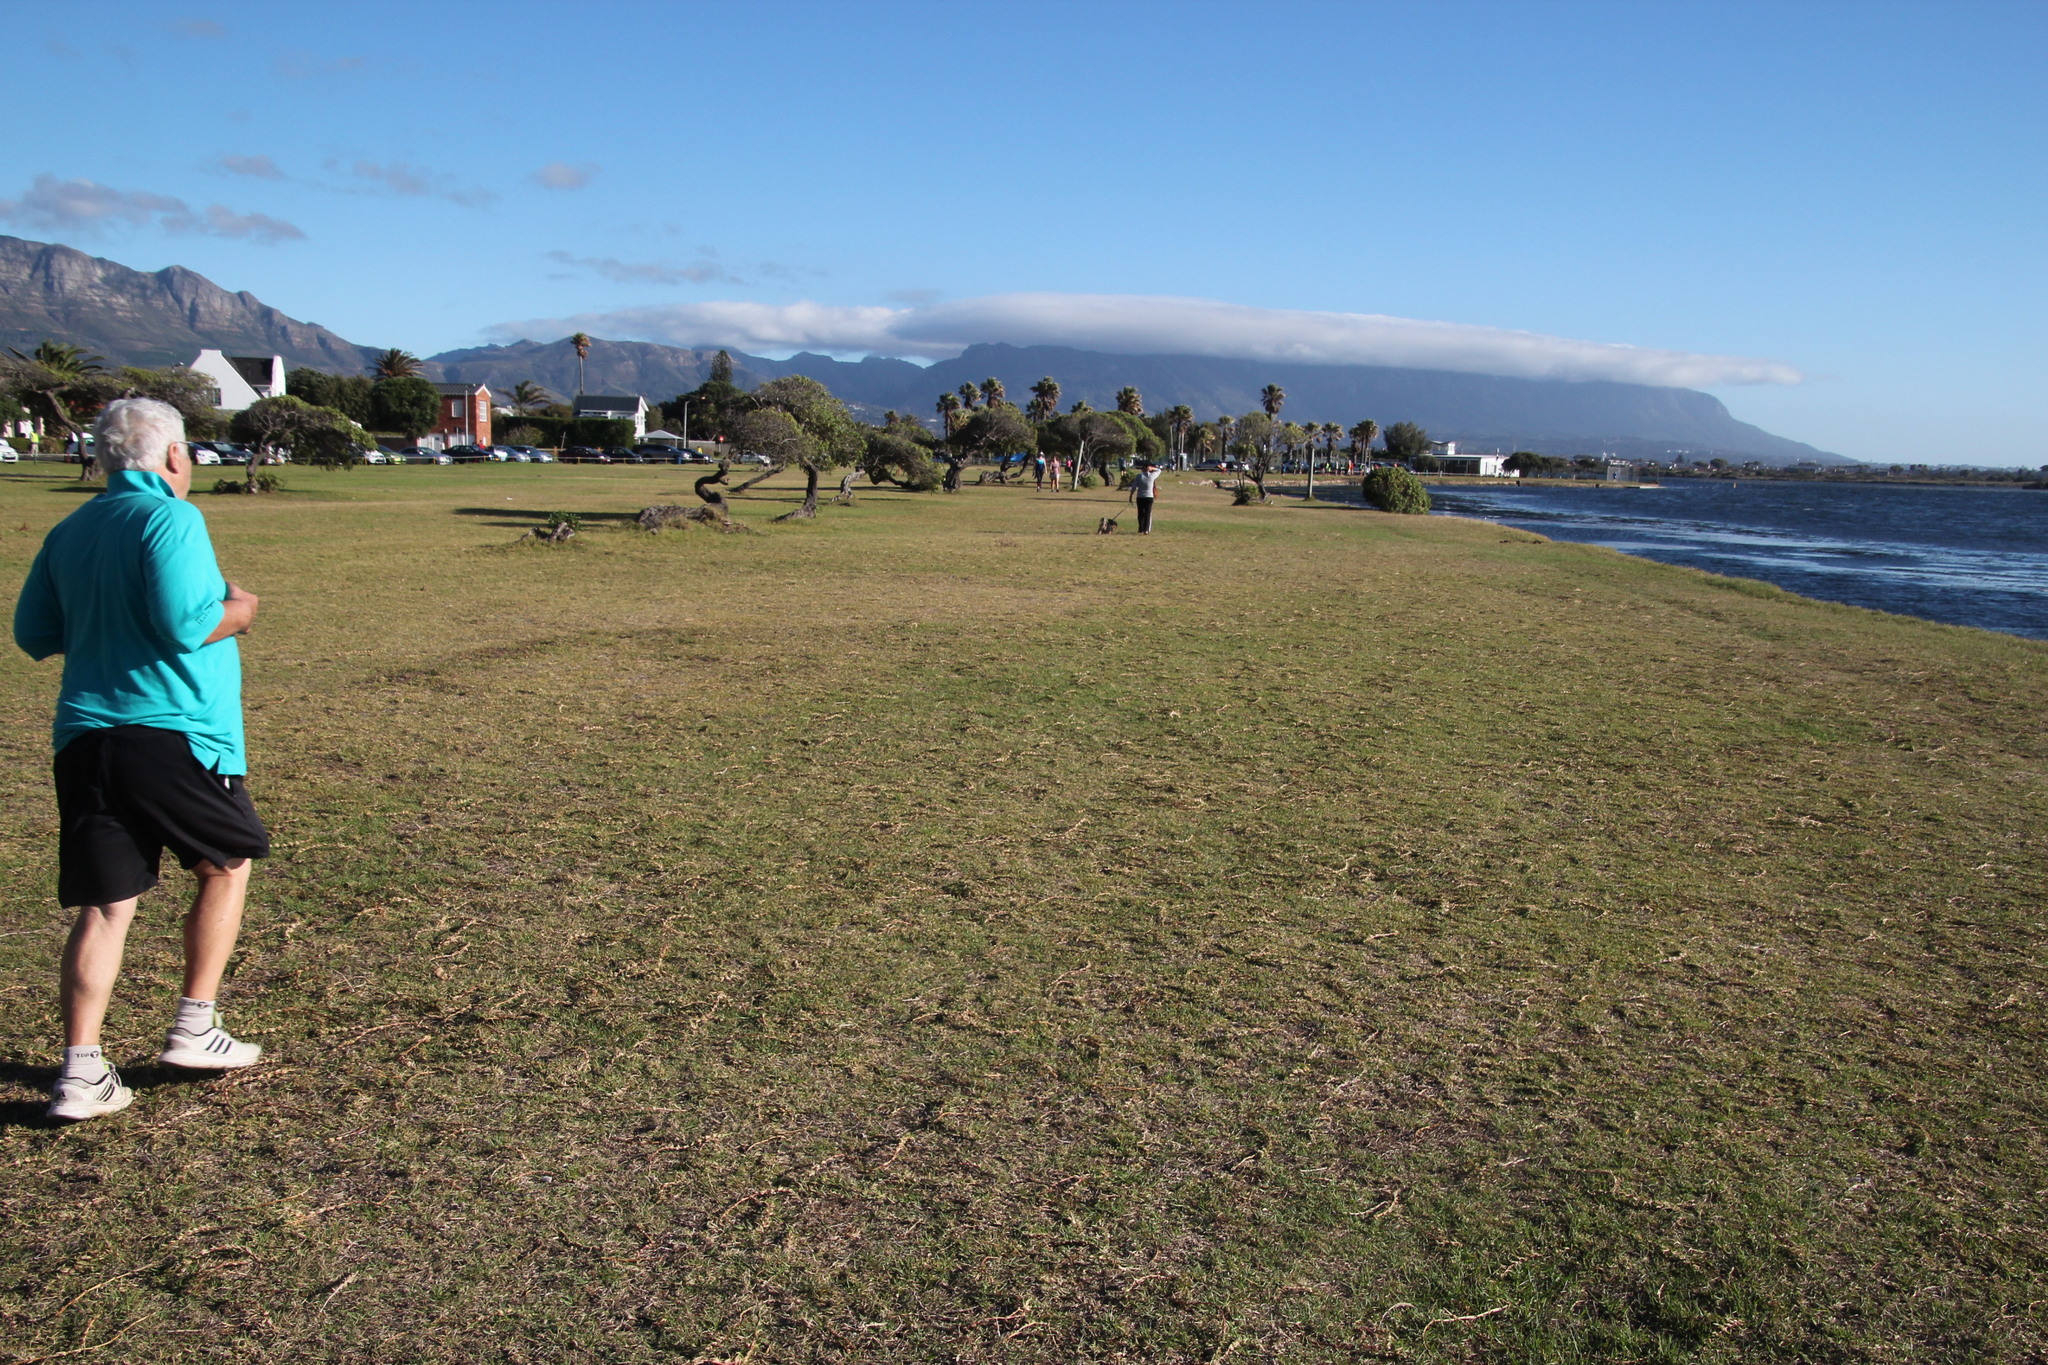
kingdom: Plantae
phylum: Tracheophyta
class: Liliopsida
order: Poales
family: Poaceae
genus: Stenotaphrum
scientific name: Stenotaphrum secundatum
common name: St. augustine grass
